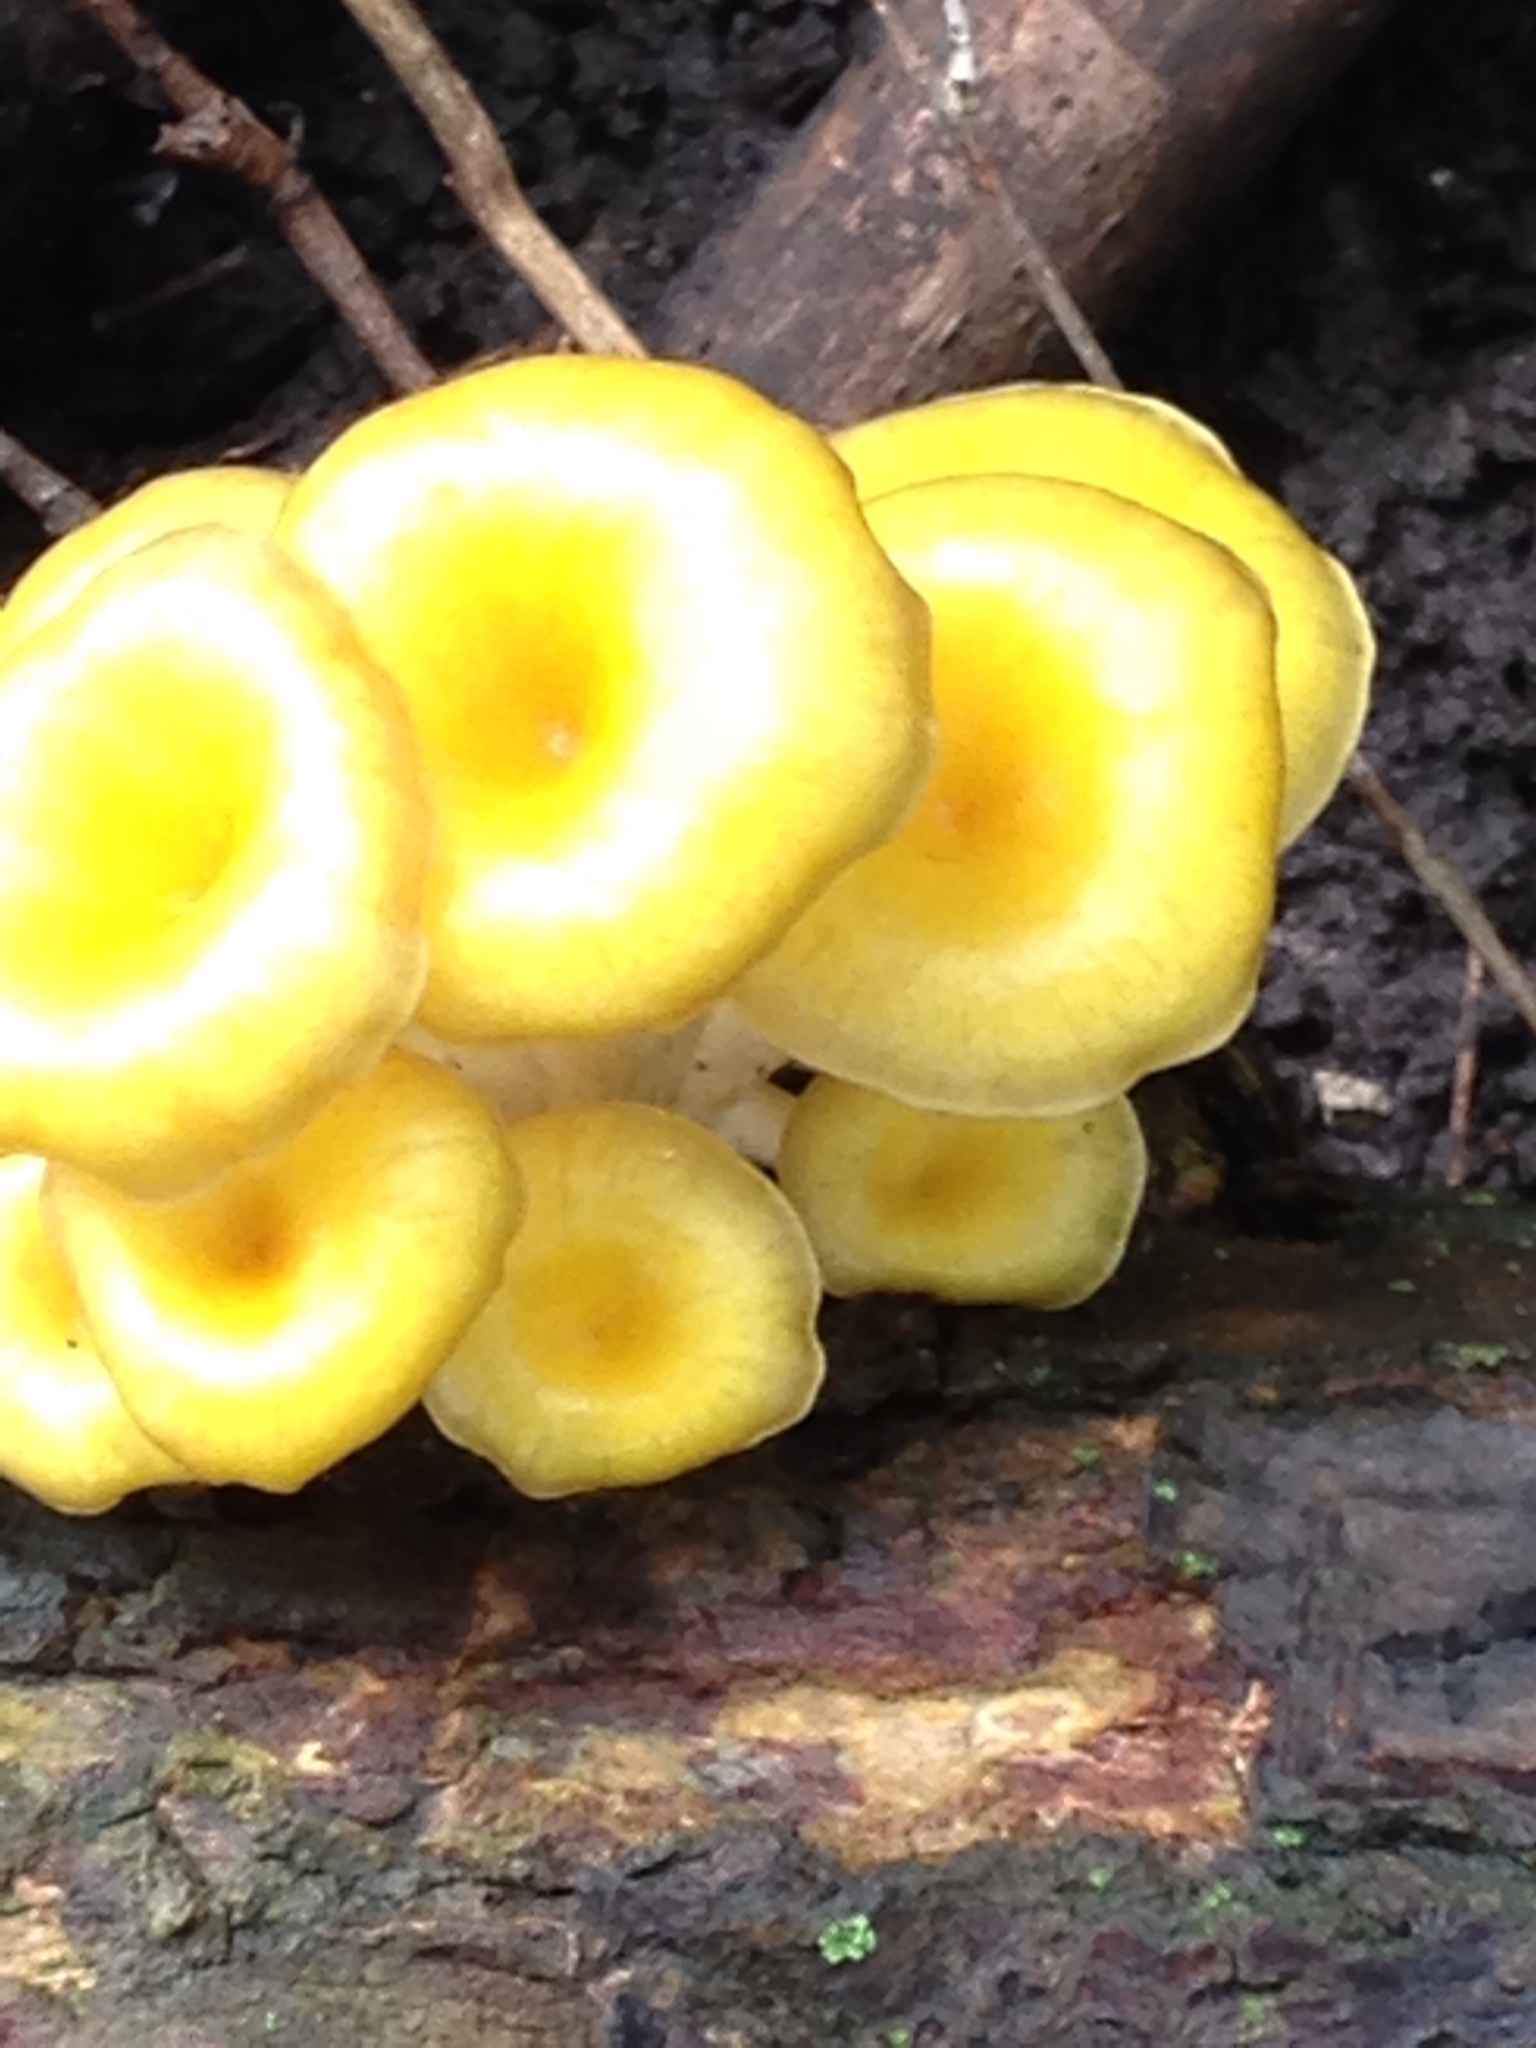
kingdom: Fungi
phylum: Basidiomycota
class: Agaricomycetes
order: Agaricales
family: Pleurotaceae
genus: Pleurotus
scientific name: Pleurotus citrinopileatus
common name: Golden oyster mushroom
